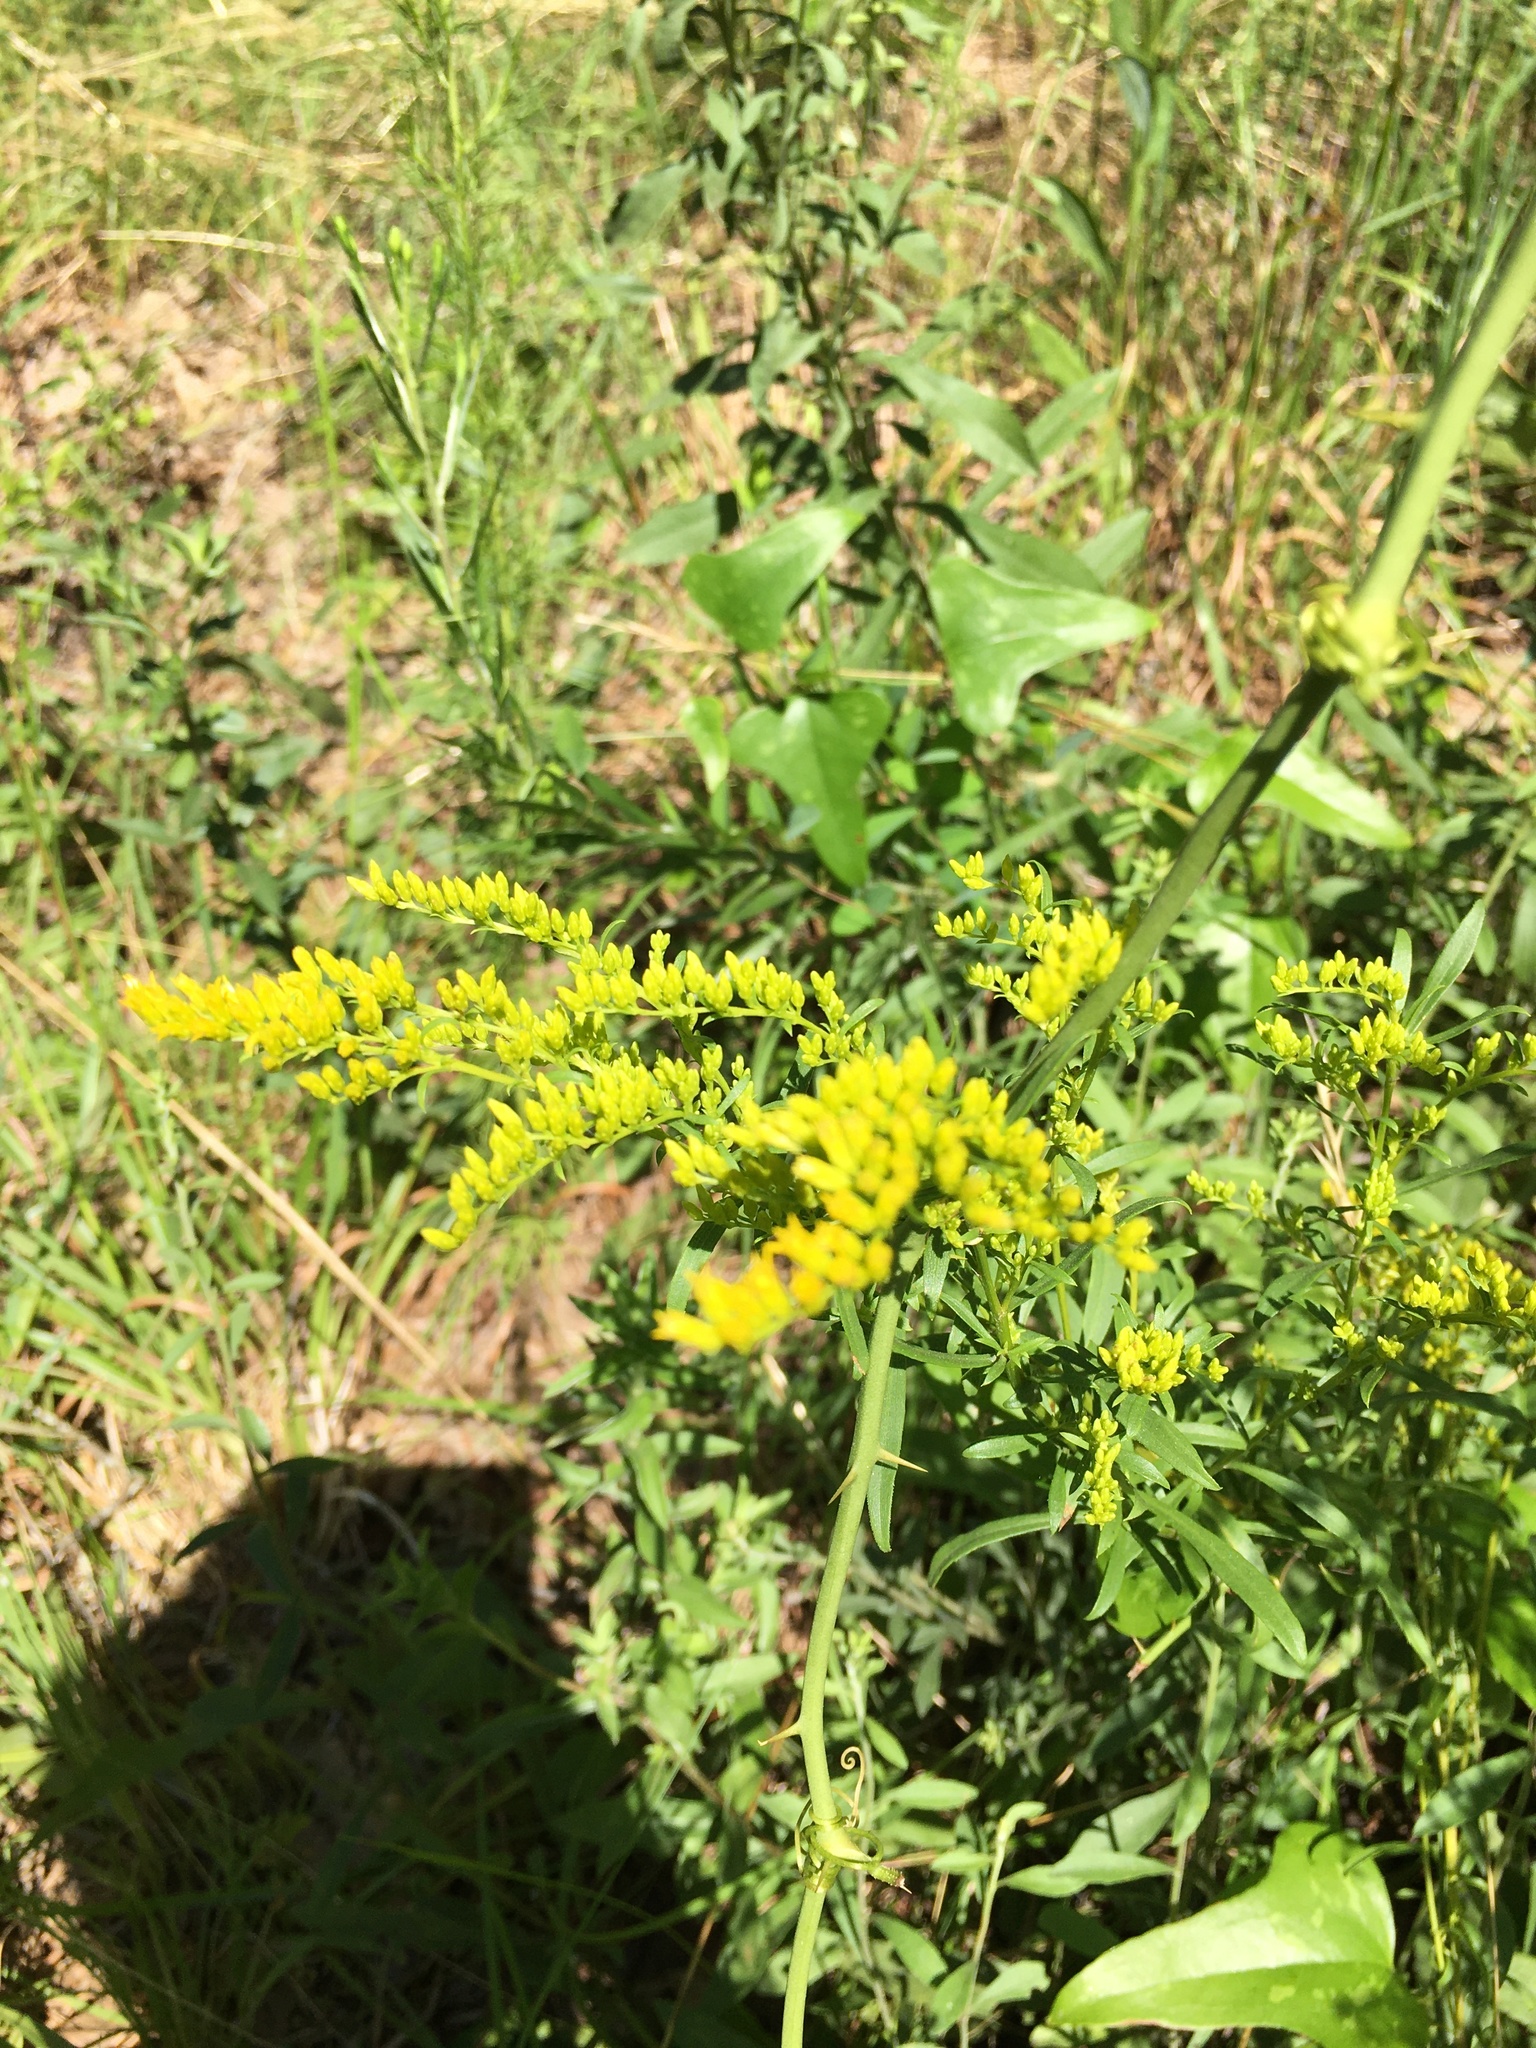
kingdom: Plantae
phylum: Tracheophyta
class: Magnoliopsida
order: Asterales
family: Asteraceae
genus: Solidago
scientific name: Solidago nemoralis
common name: Grey goldenrod
